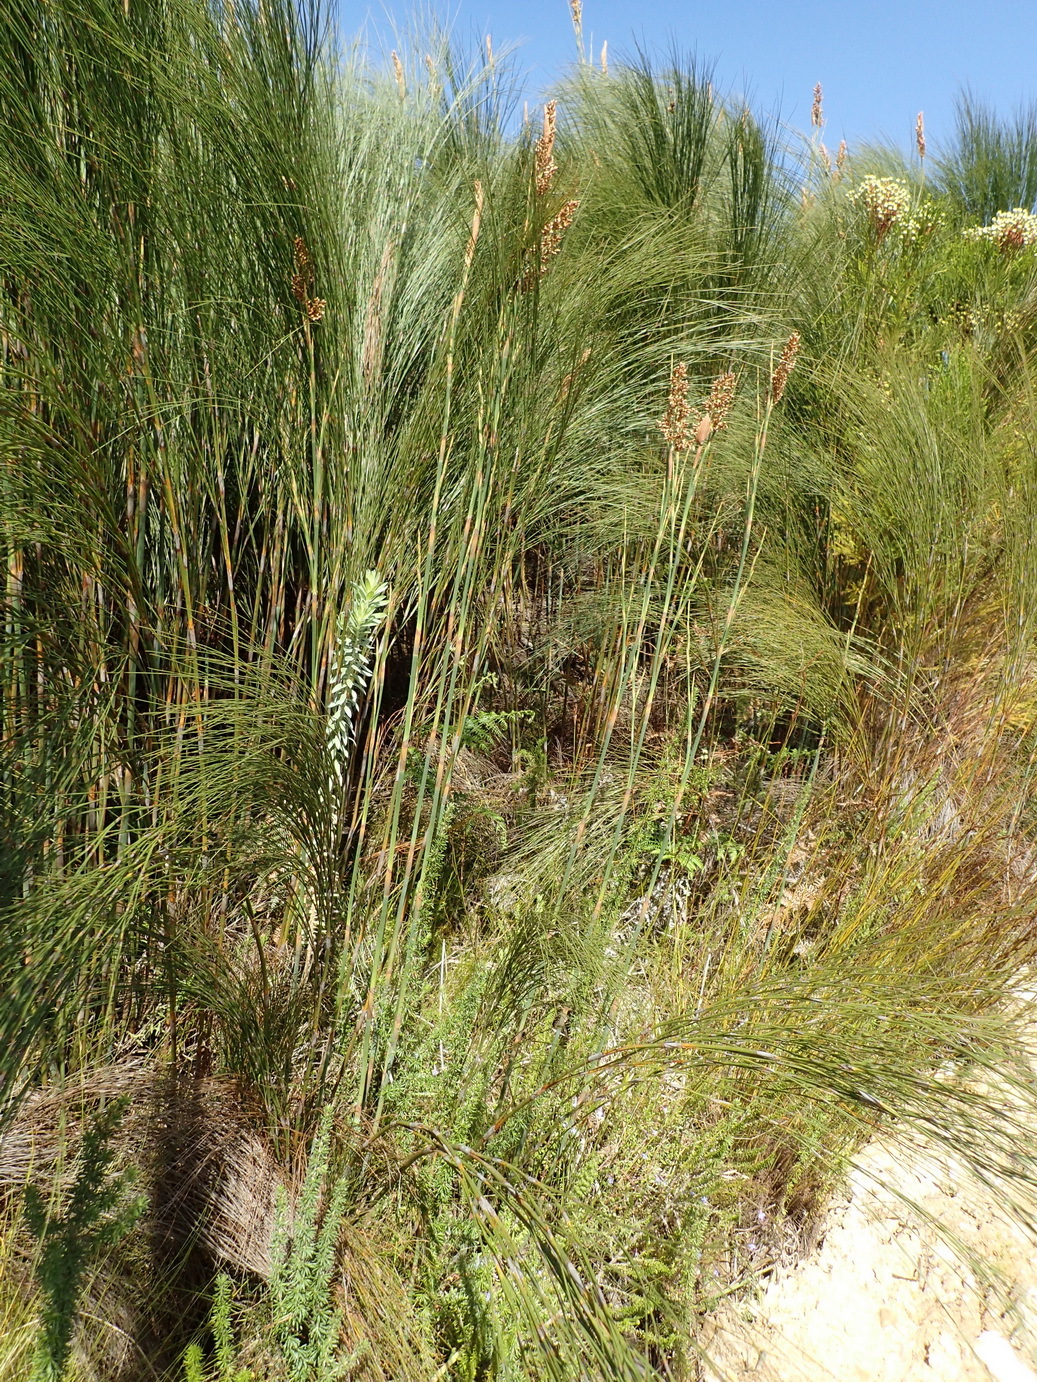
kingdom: Plantae
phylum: Tracheophyta
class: Liliopsida
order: Poales
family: Restionaceae
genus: Cannomois
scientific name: Cannomois virgata
